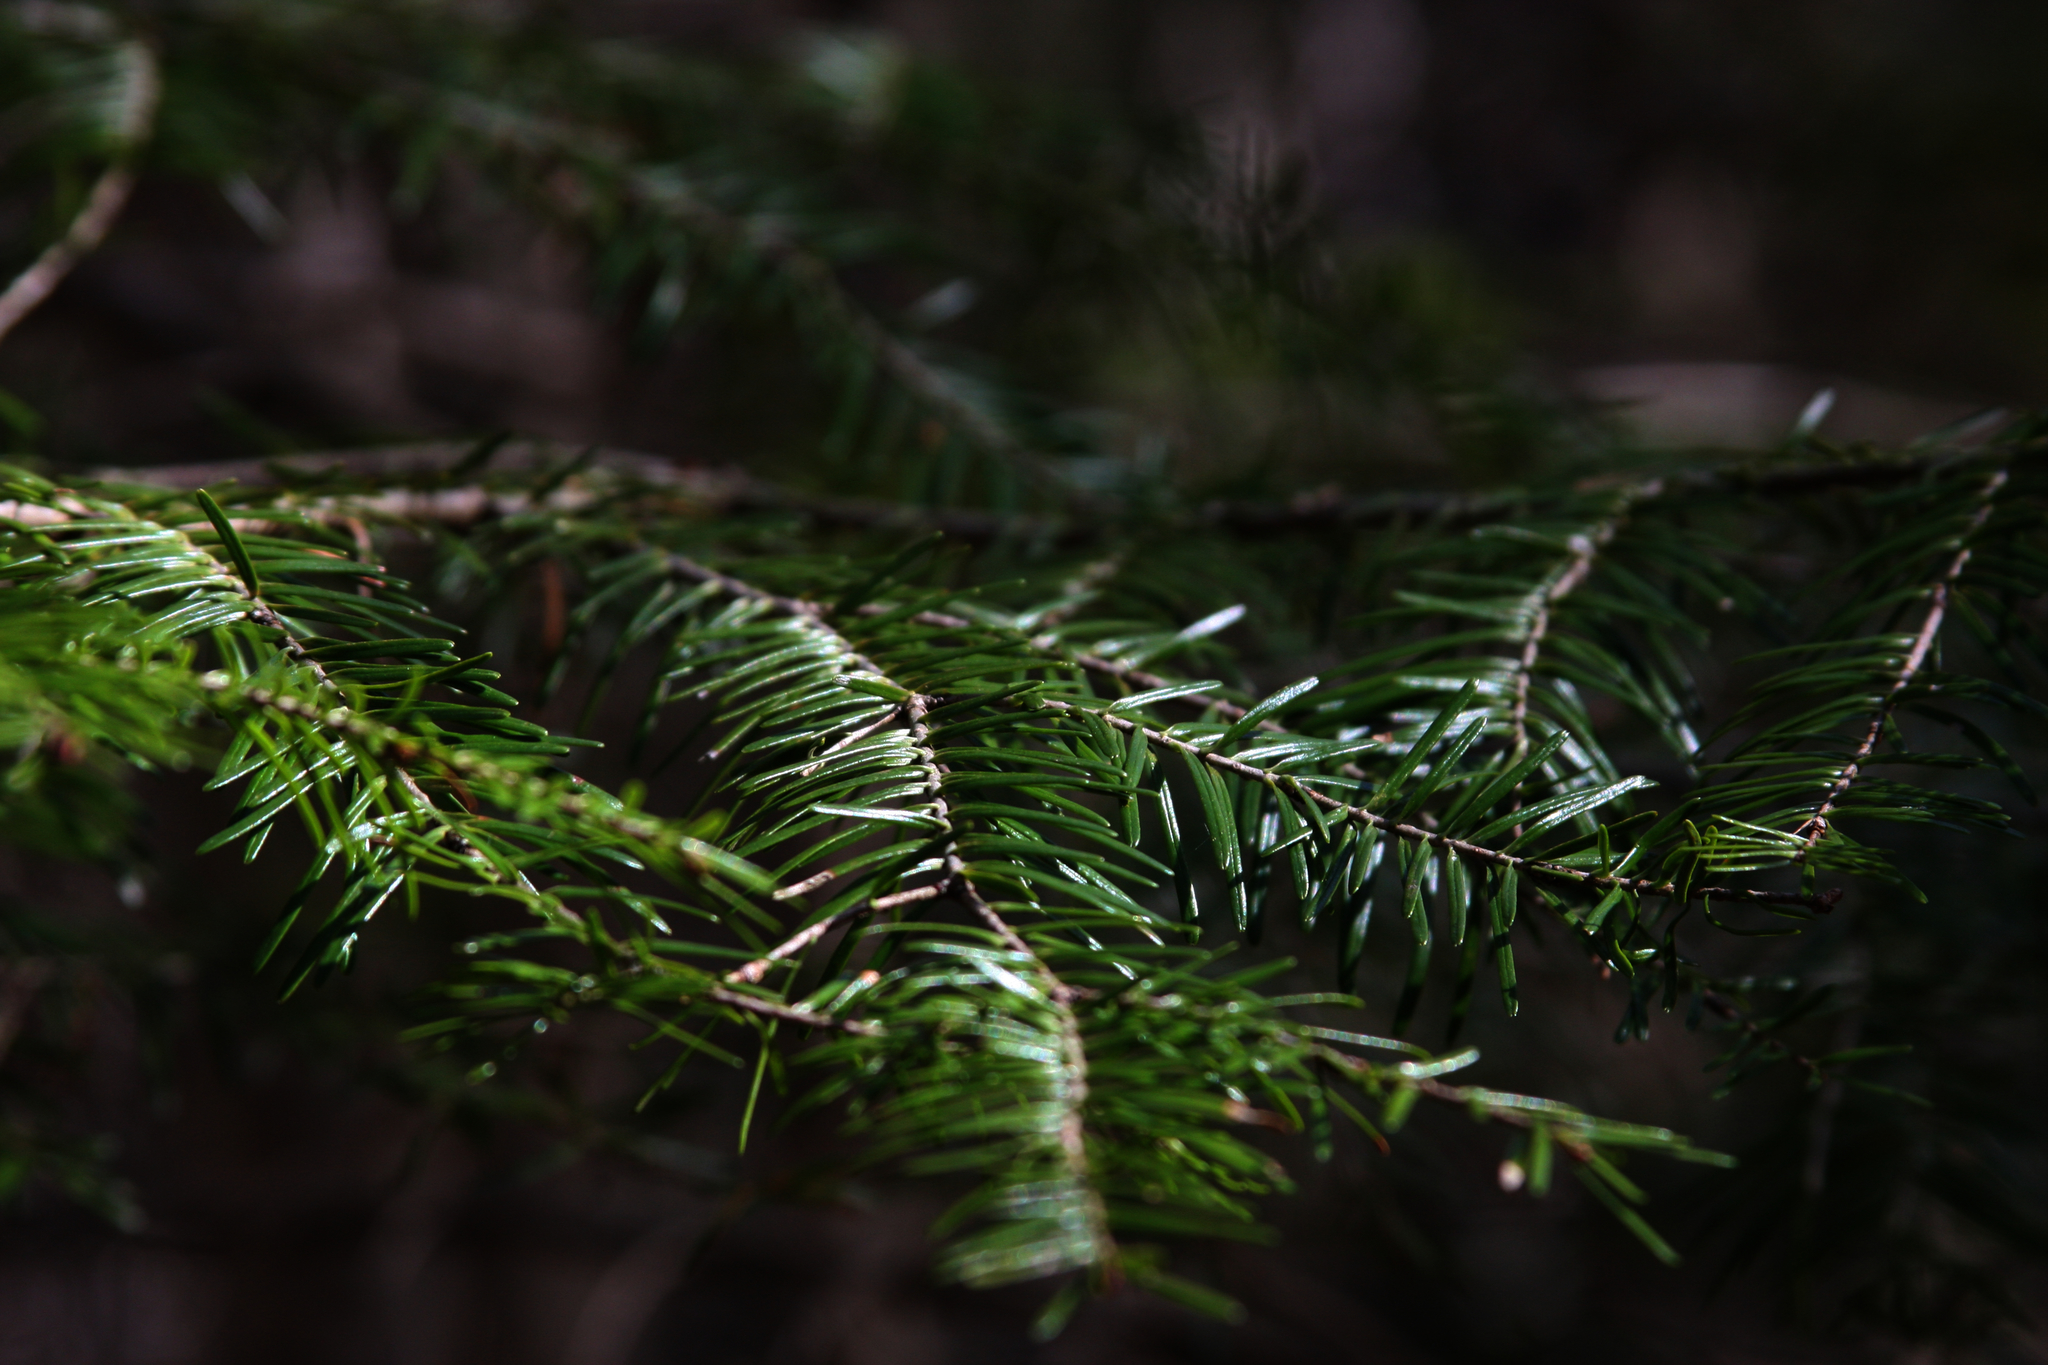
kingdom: Plantae
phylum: Tracheophyta
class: Pinopsida
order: Pinales
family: Pinaceae
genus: Abies
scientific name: Abies balsamea
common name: Balsam fir
